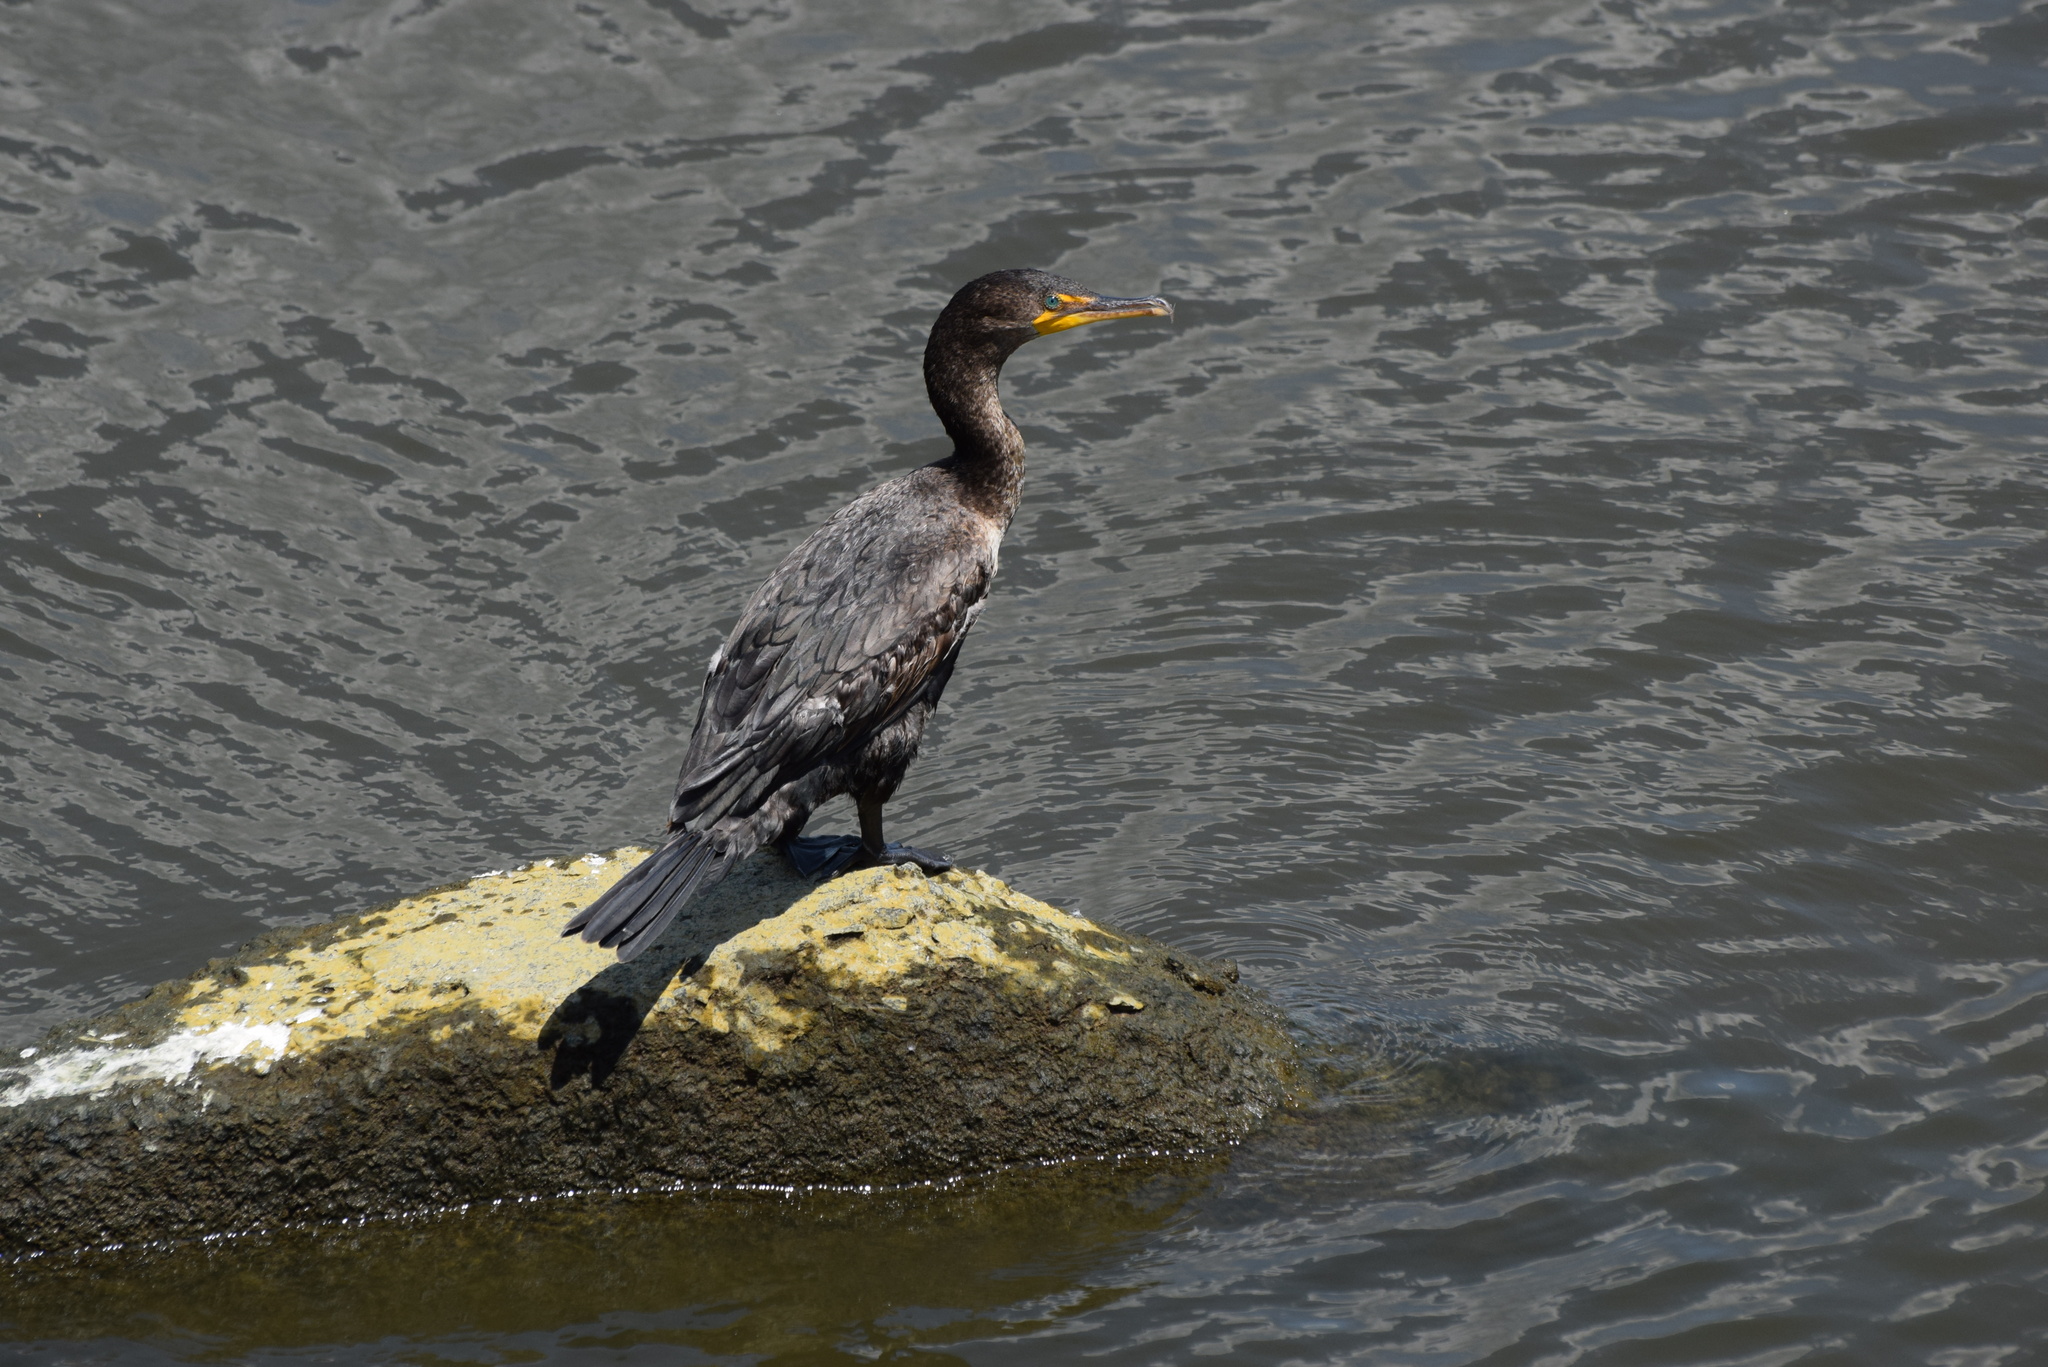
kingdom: Animalia
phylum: Chordata
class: Aves
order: Suliformes
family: Phalacrocoracidae
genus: Phalacrocorax
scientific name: Phalacrocorax auritus
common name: Double-crested cormorant
